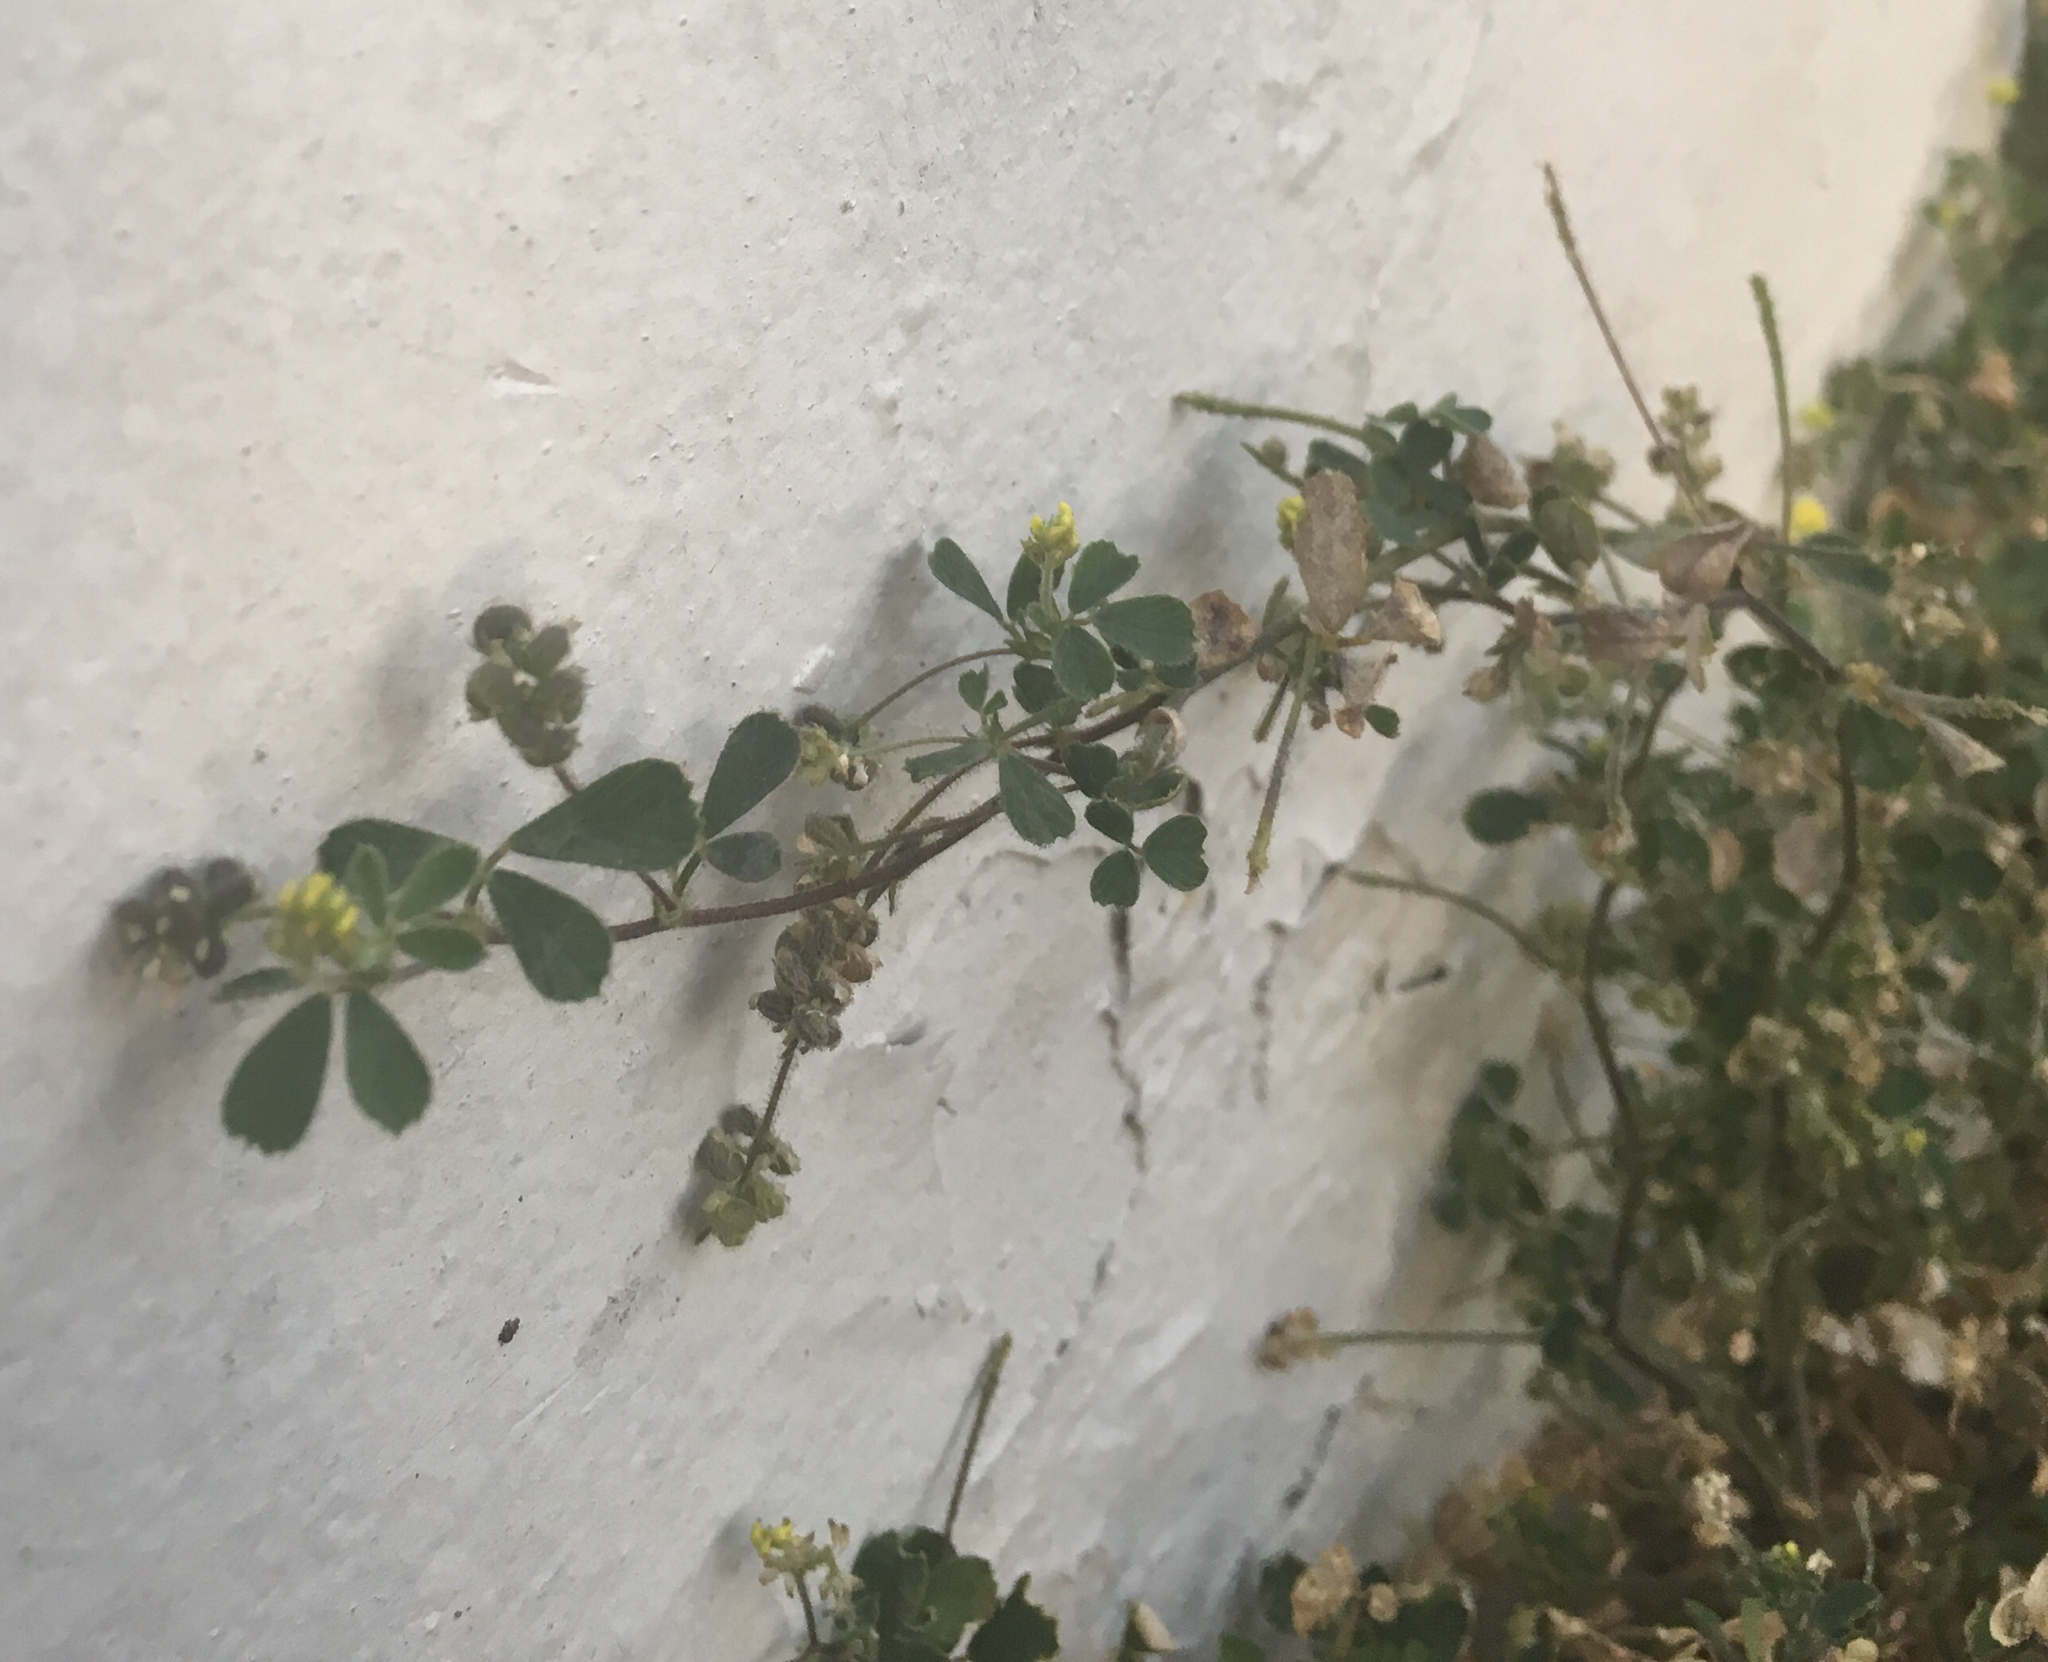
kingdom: Plantae
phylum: Tracheophyta
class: Magnoliopsida
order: Fabales
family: Fabaceae
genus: Medicago
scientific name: Medicago lupulina
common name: Black medick
